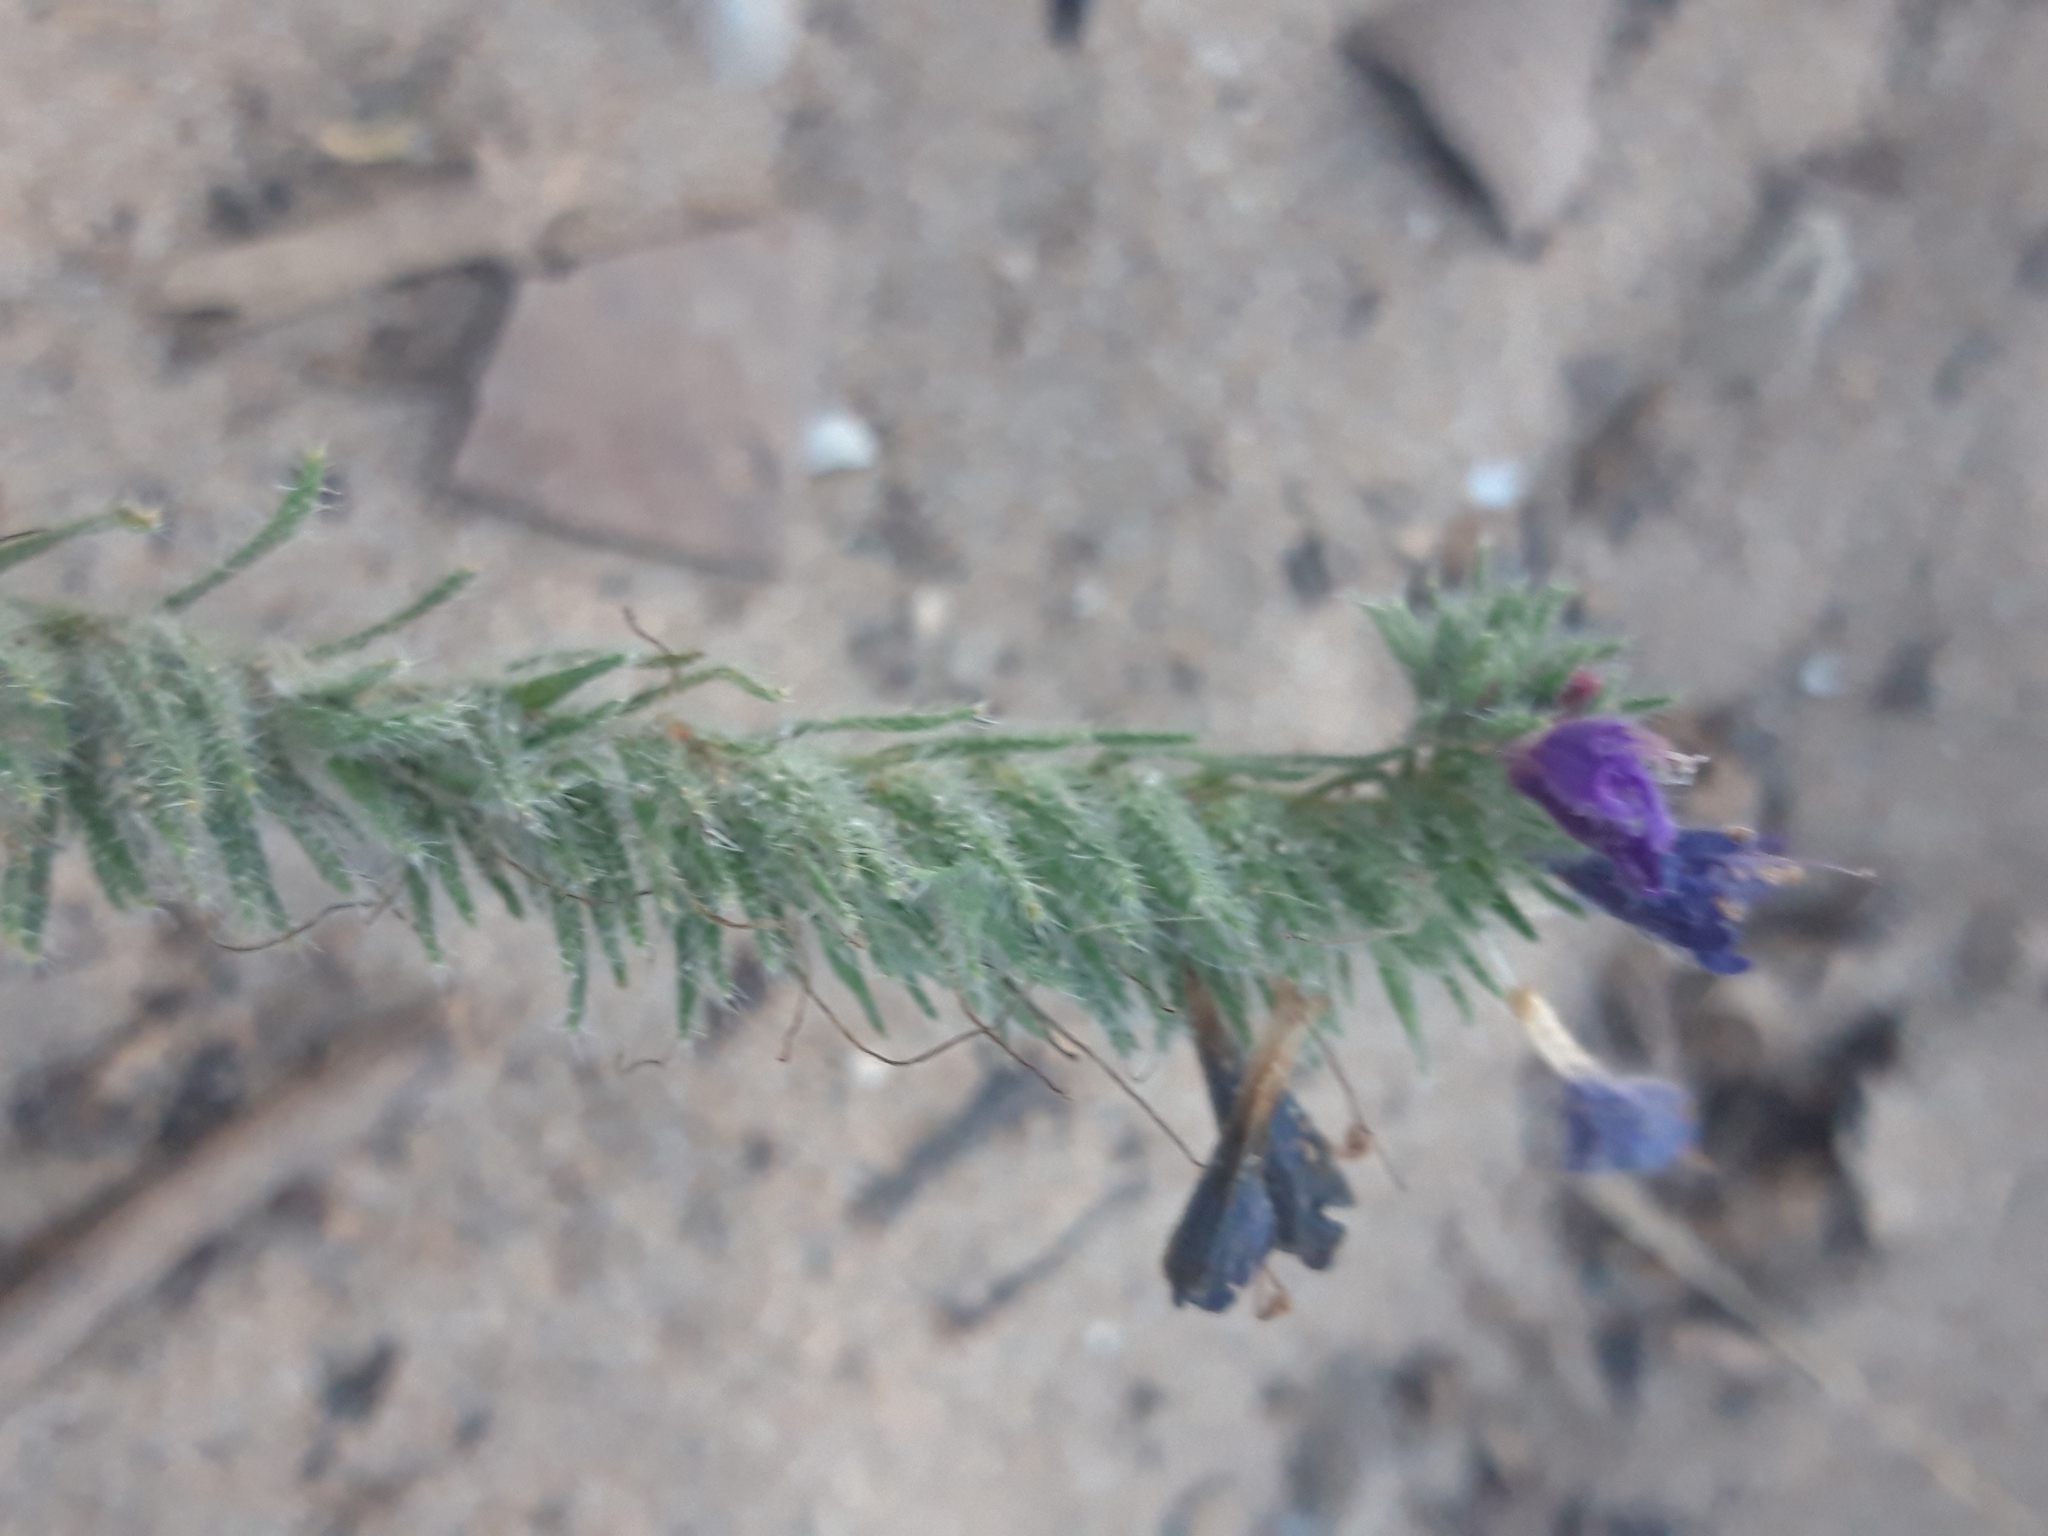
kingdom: Plantae
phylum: Tracheophyta
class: Magnoliopsida
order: Boraginales
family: Boraginaceae
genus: Echium
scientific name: Echium sabulicola
